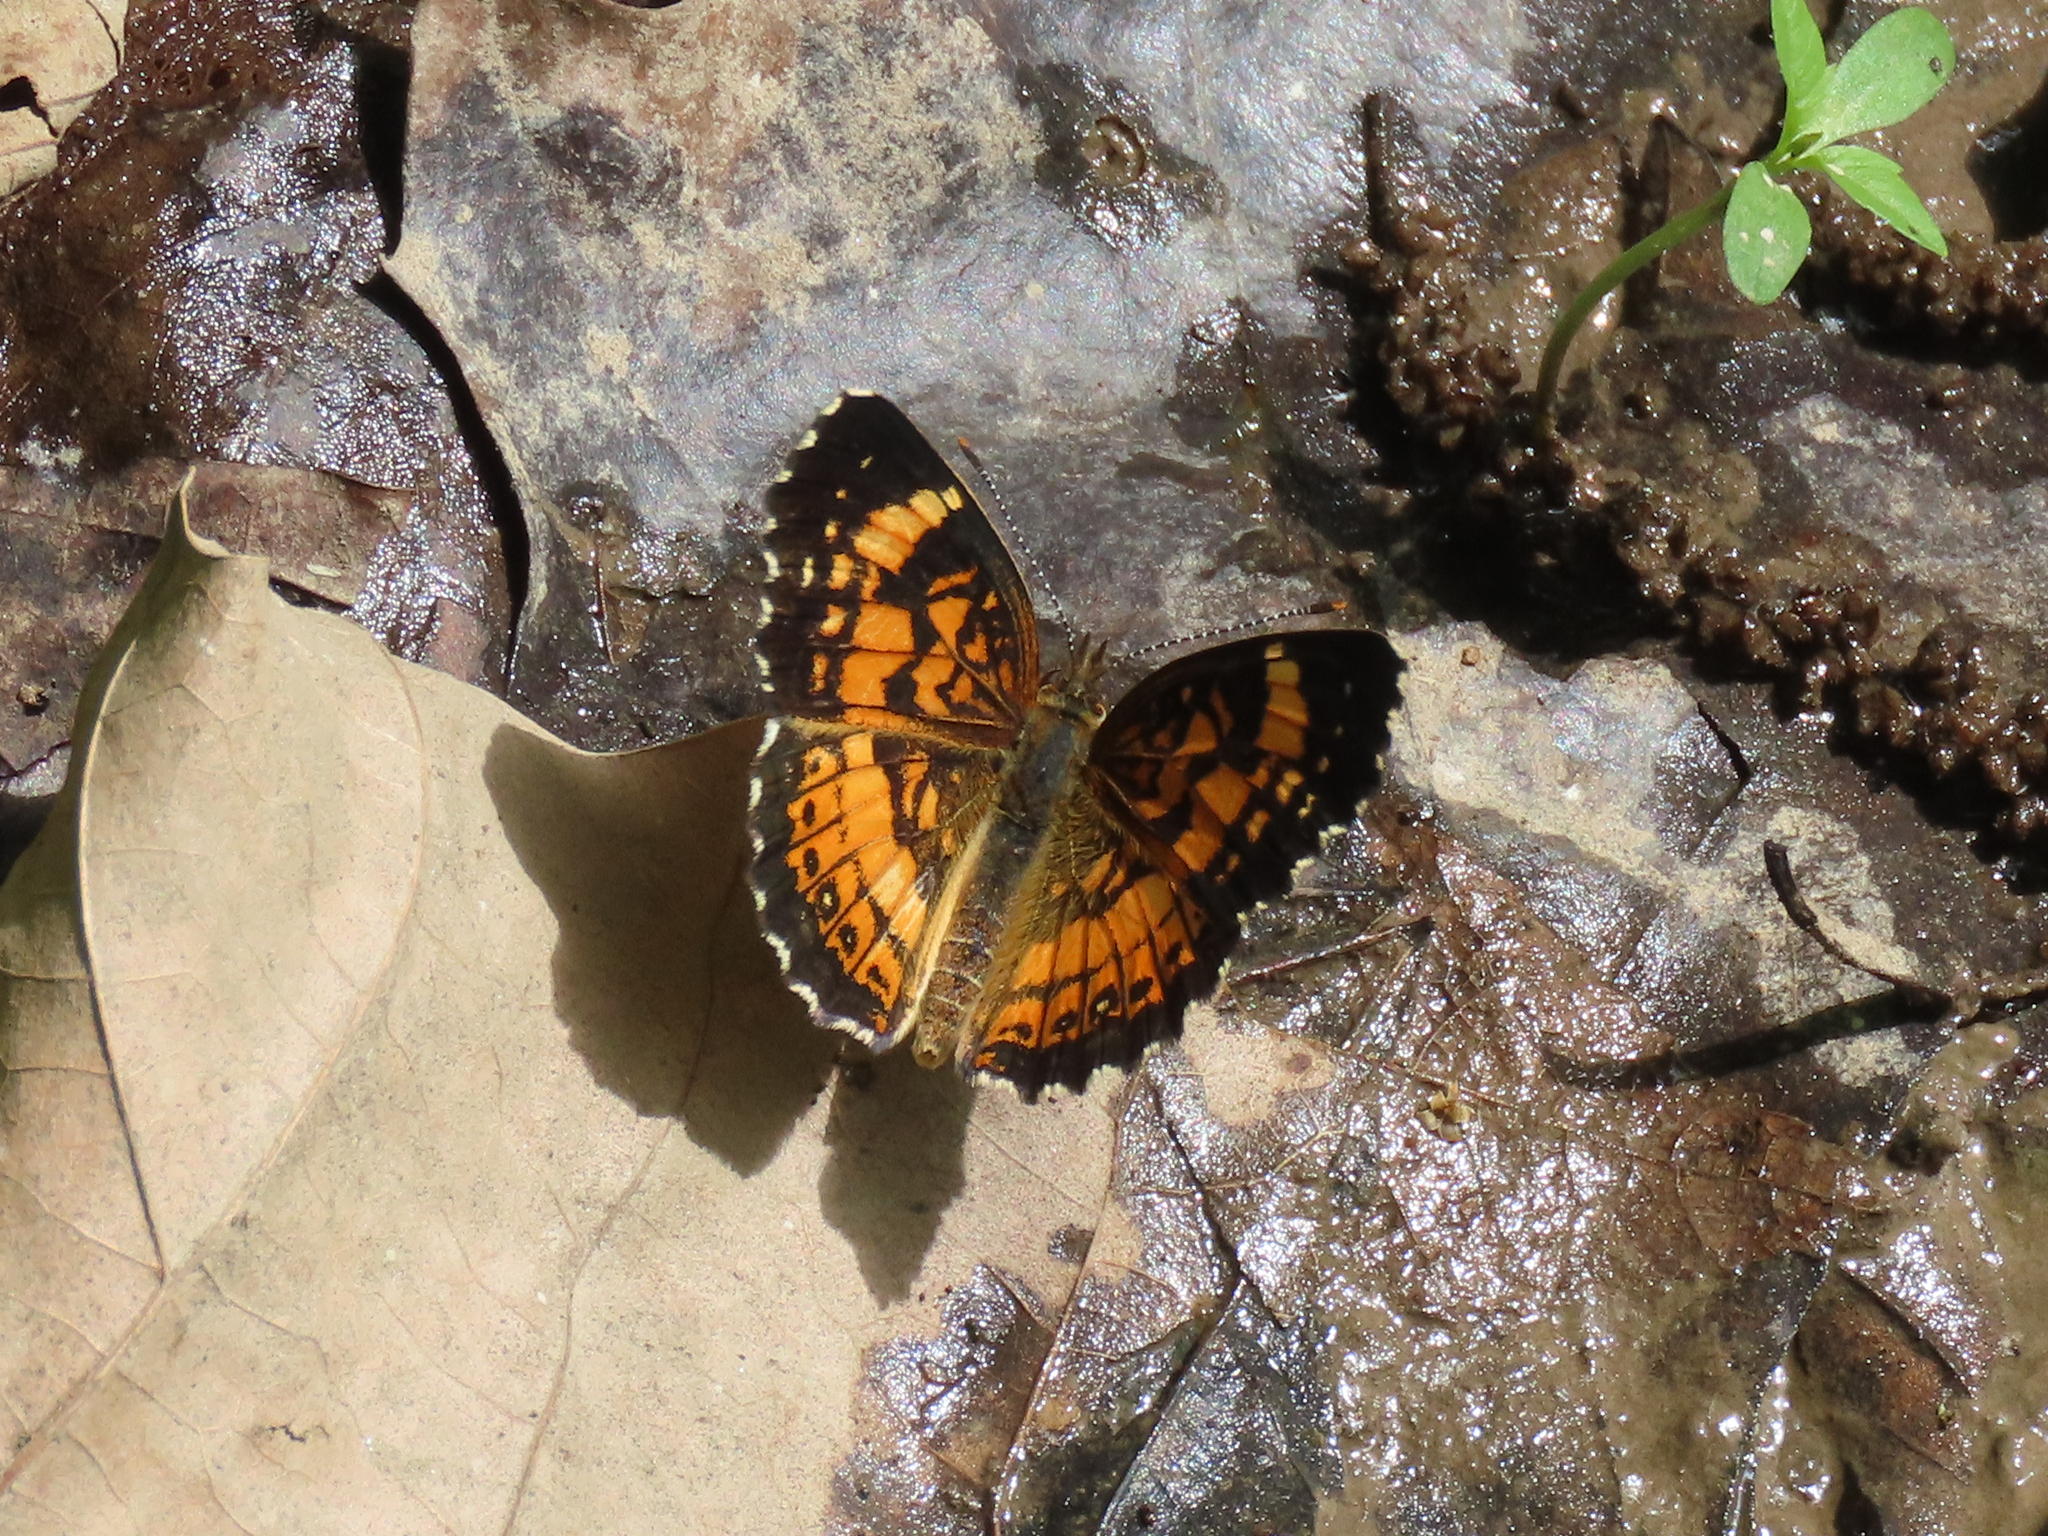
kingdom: Animalia
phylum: Arthropoda
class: Insecta
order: Lepidoptera
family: Nymphalidae
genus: Chlosyne
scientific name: Chlosyne nycteis
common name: Silvery checkerspot
